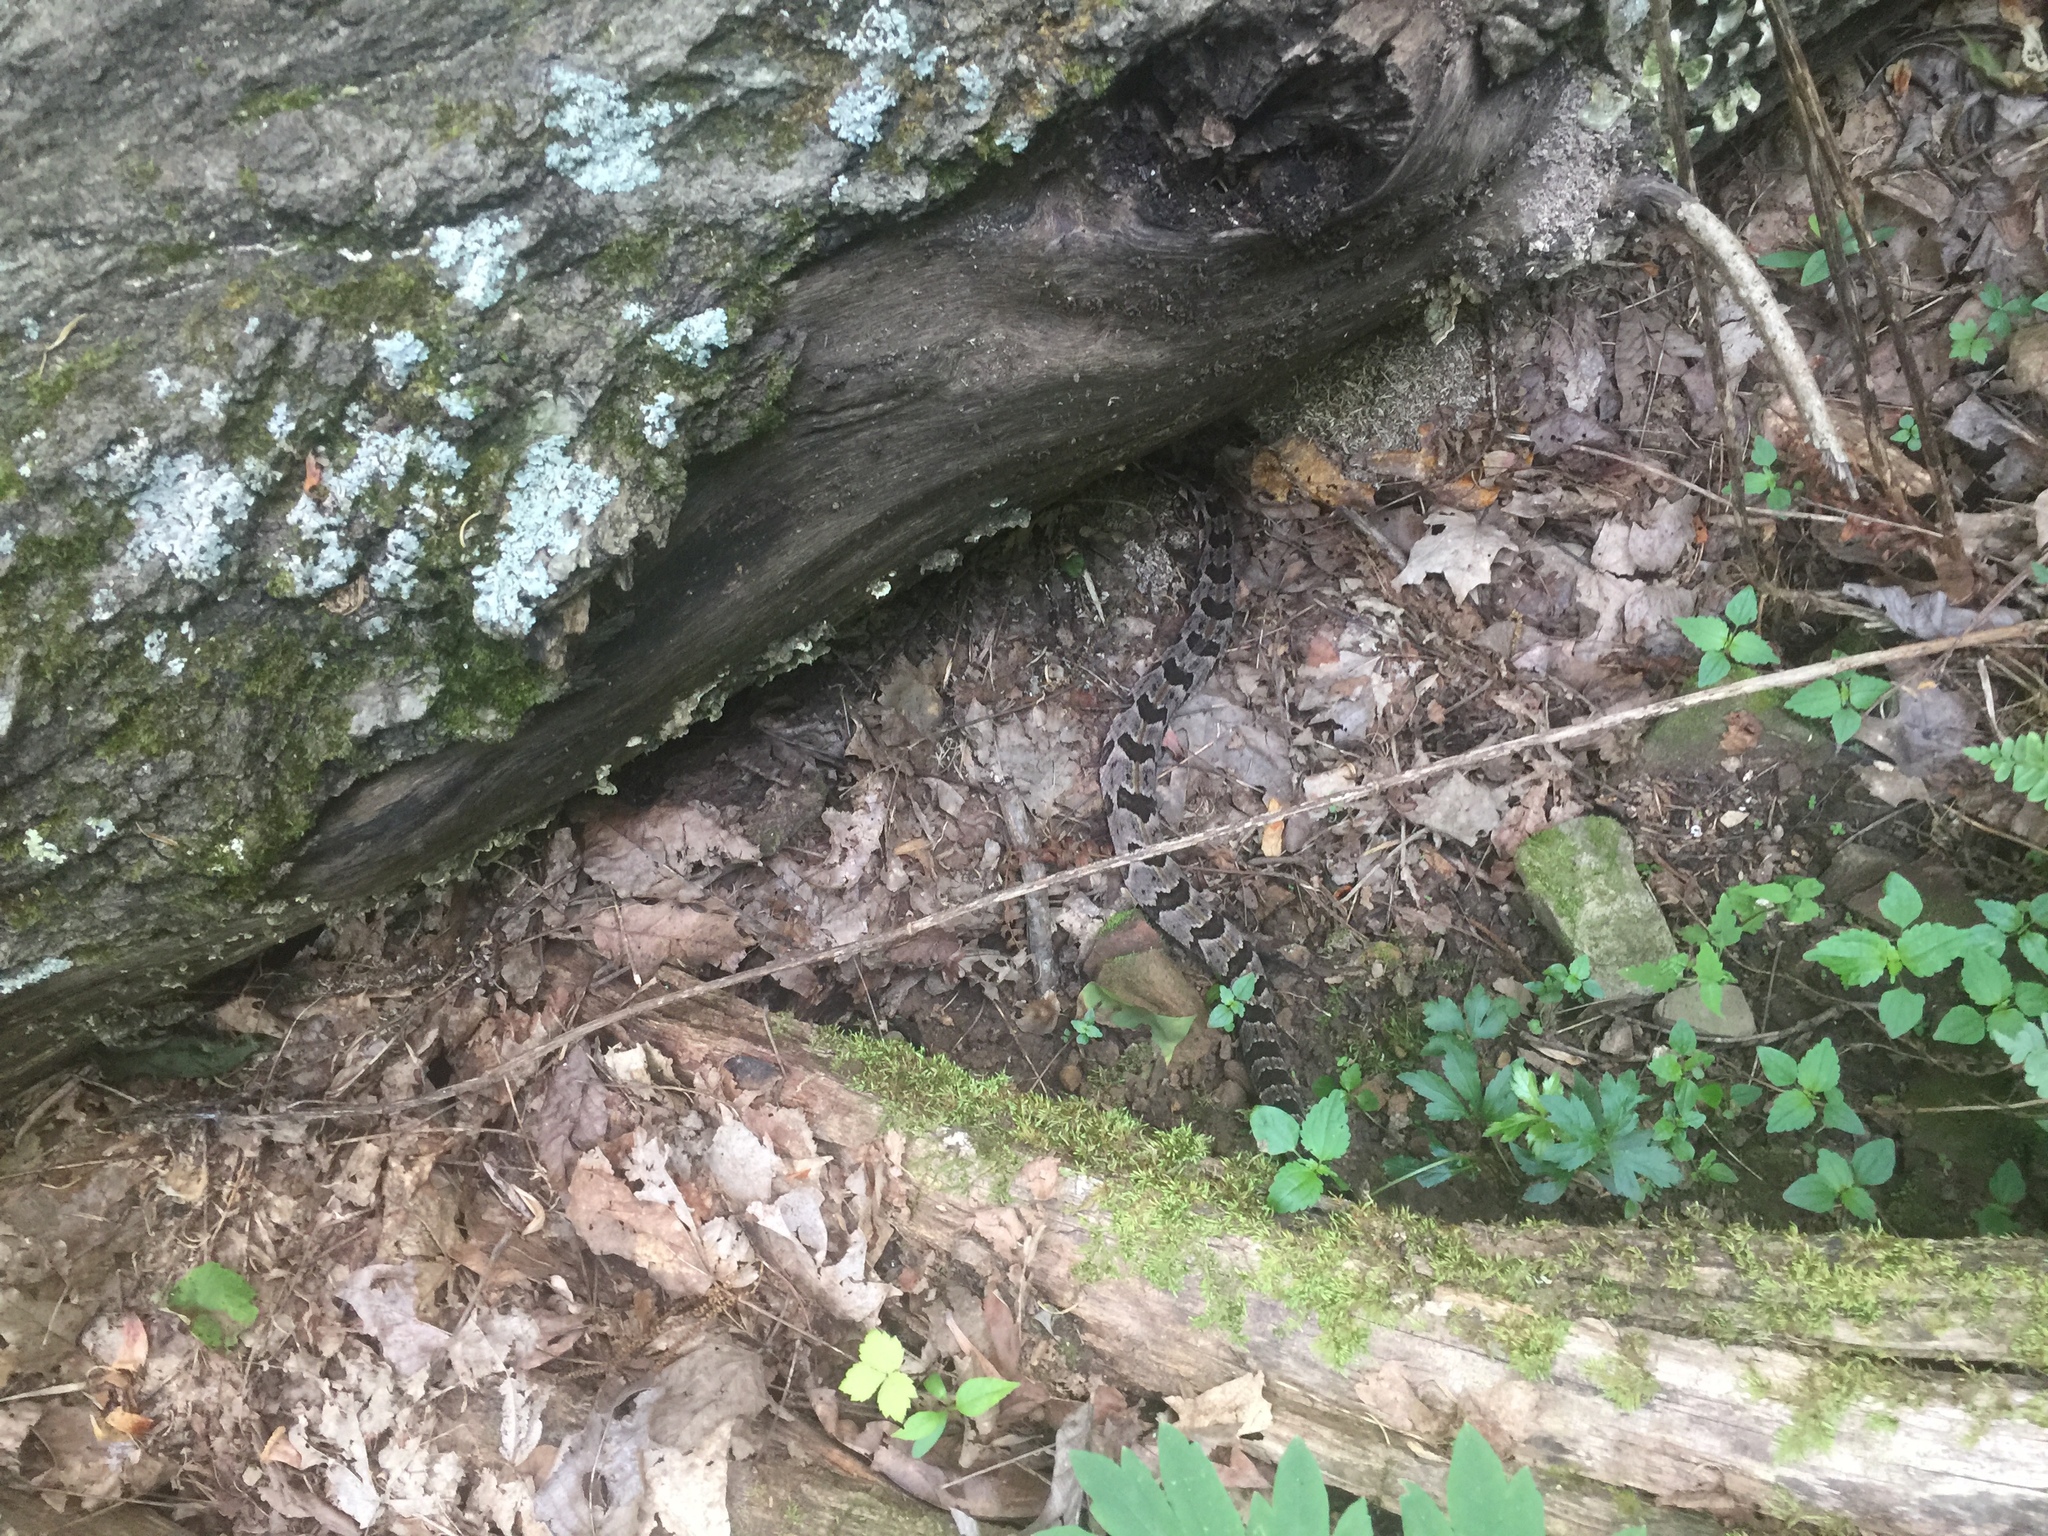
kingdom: Animalia
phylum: Chordata
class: Squamata
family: Viperidae
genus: Crotalus
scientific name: Crotalus horridus
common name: Timber rattlesnake
